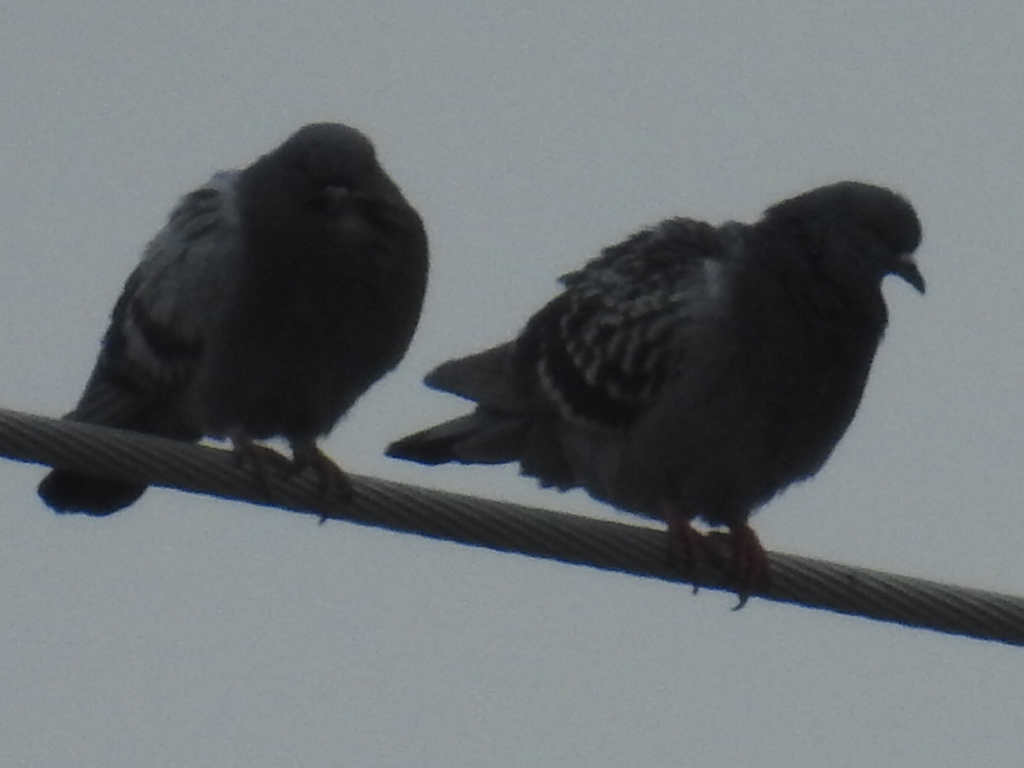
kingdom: Animalia
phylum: Chordata
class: Aves
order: Columbiformes
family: Columbidae
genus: Columba
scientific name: Columba livia
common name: Rock pigeon
